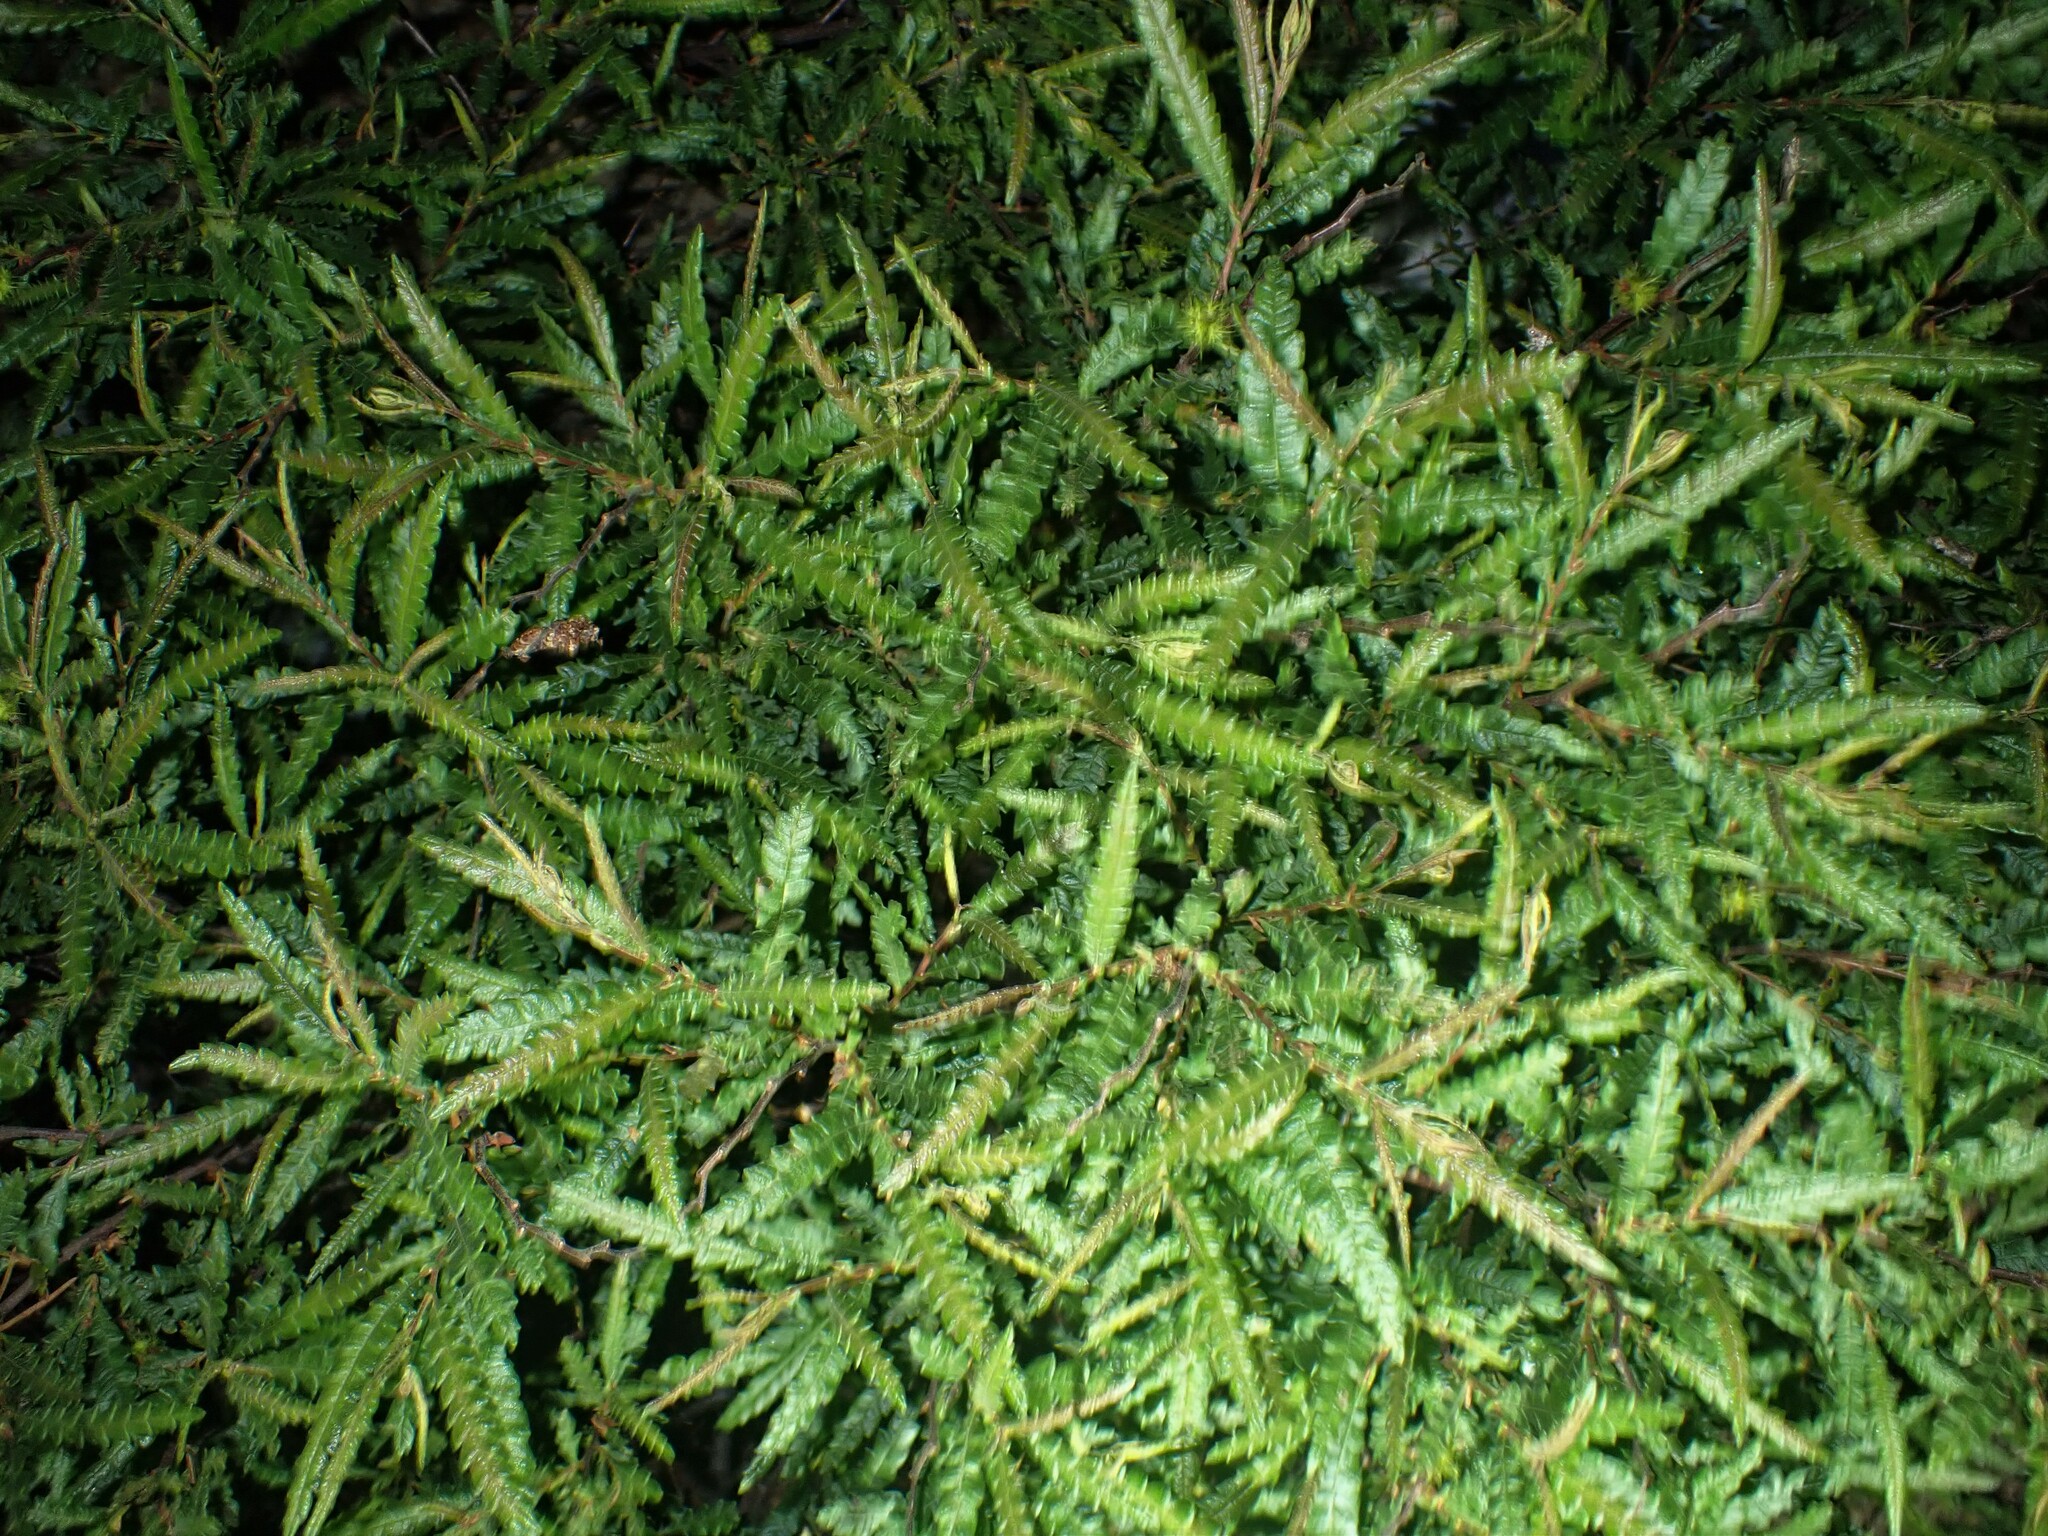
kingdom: Plantae
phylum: Tracheophyta
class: Magnoliopsida
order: Fagales
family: Myricaceae
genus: Comptonia
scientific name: Comptonia peregrina
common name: Sweet-fern
